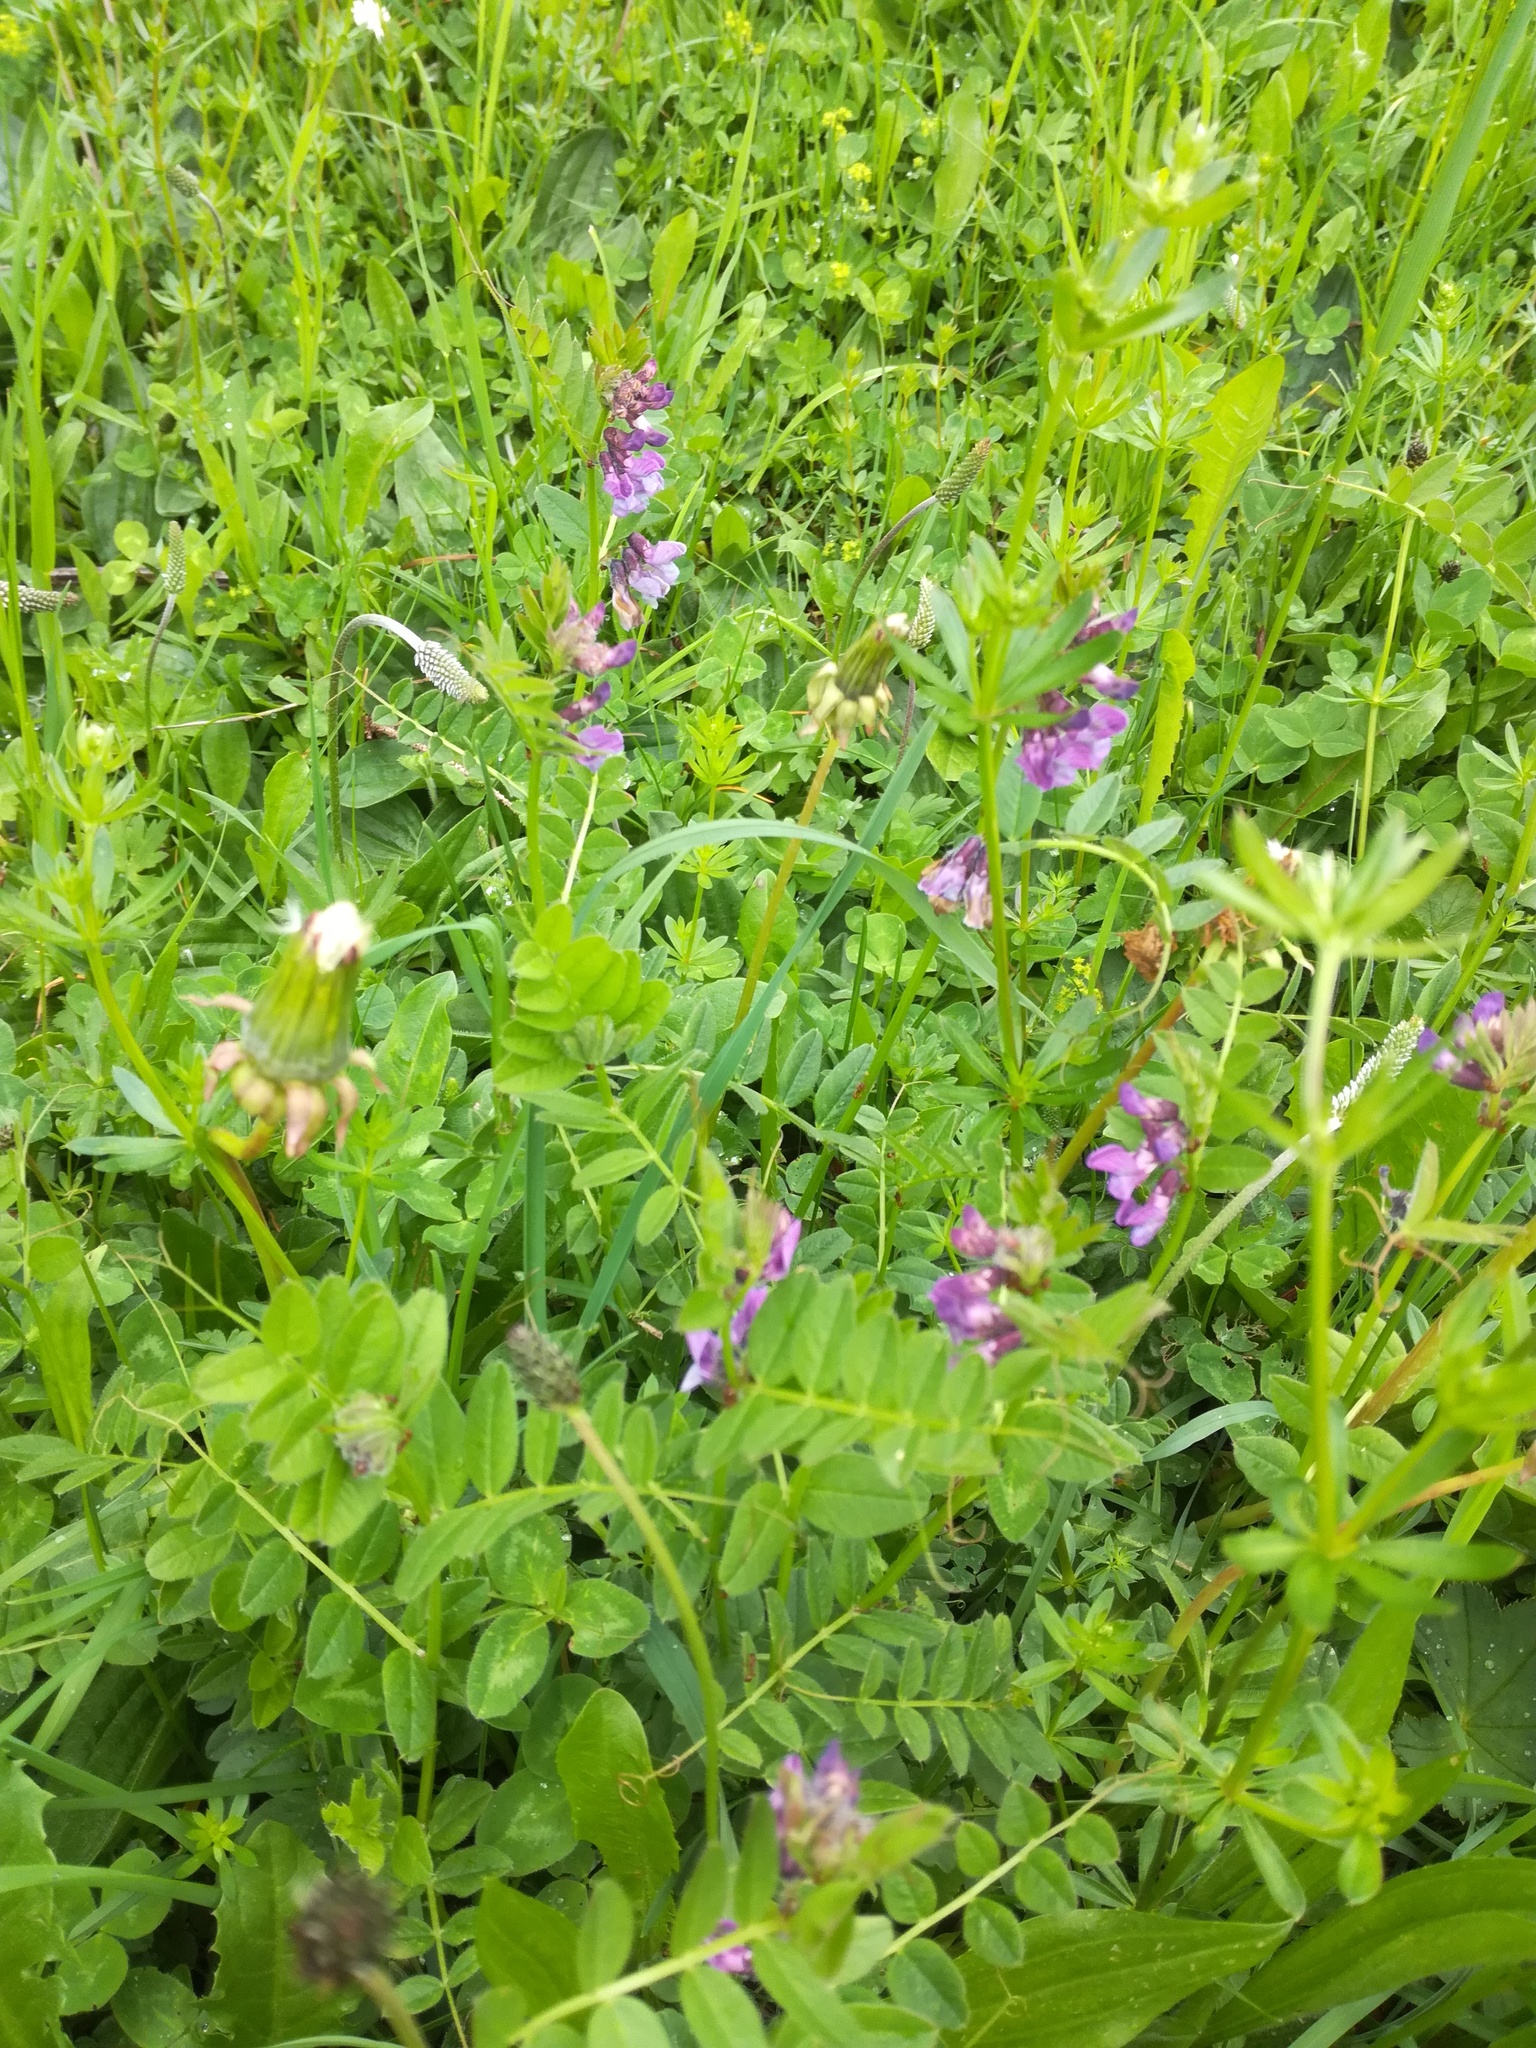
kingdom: Plantae
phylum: Tracheophyta
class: Magnoliopsida
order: Fabales
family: Fabaceae
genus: Vicia
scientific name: Vicia sepium
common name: Bush vetch
